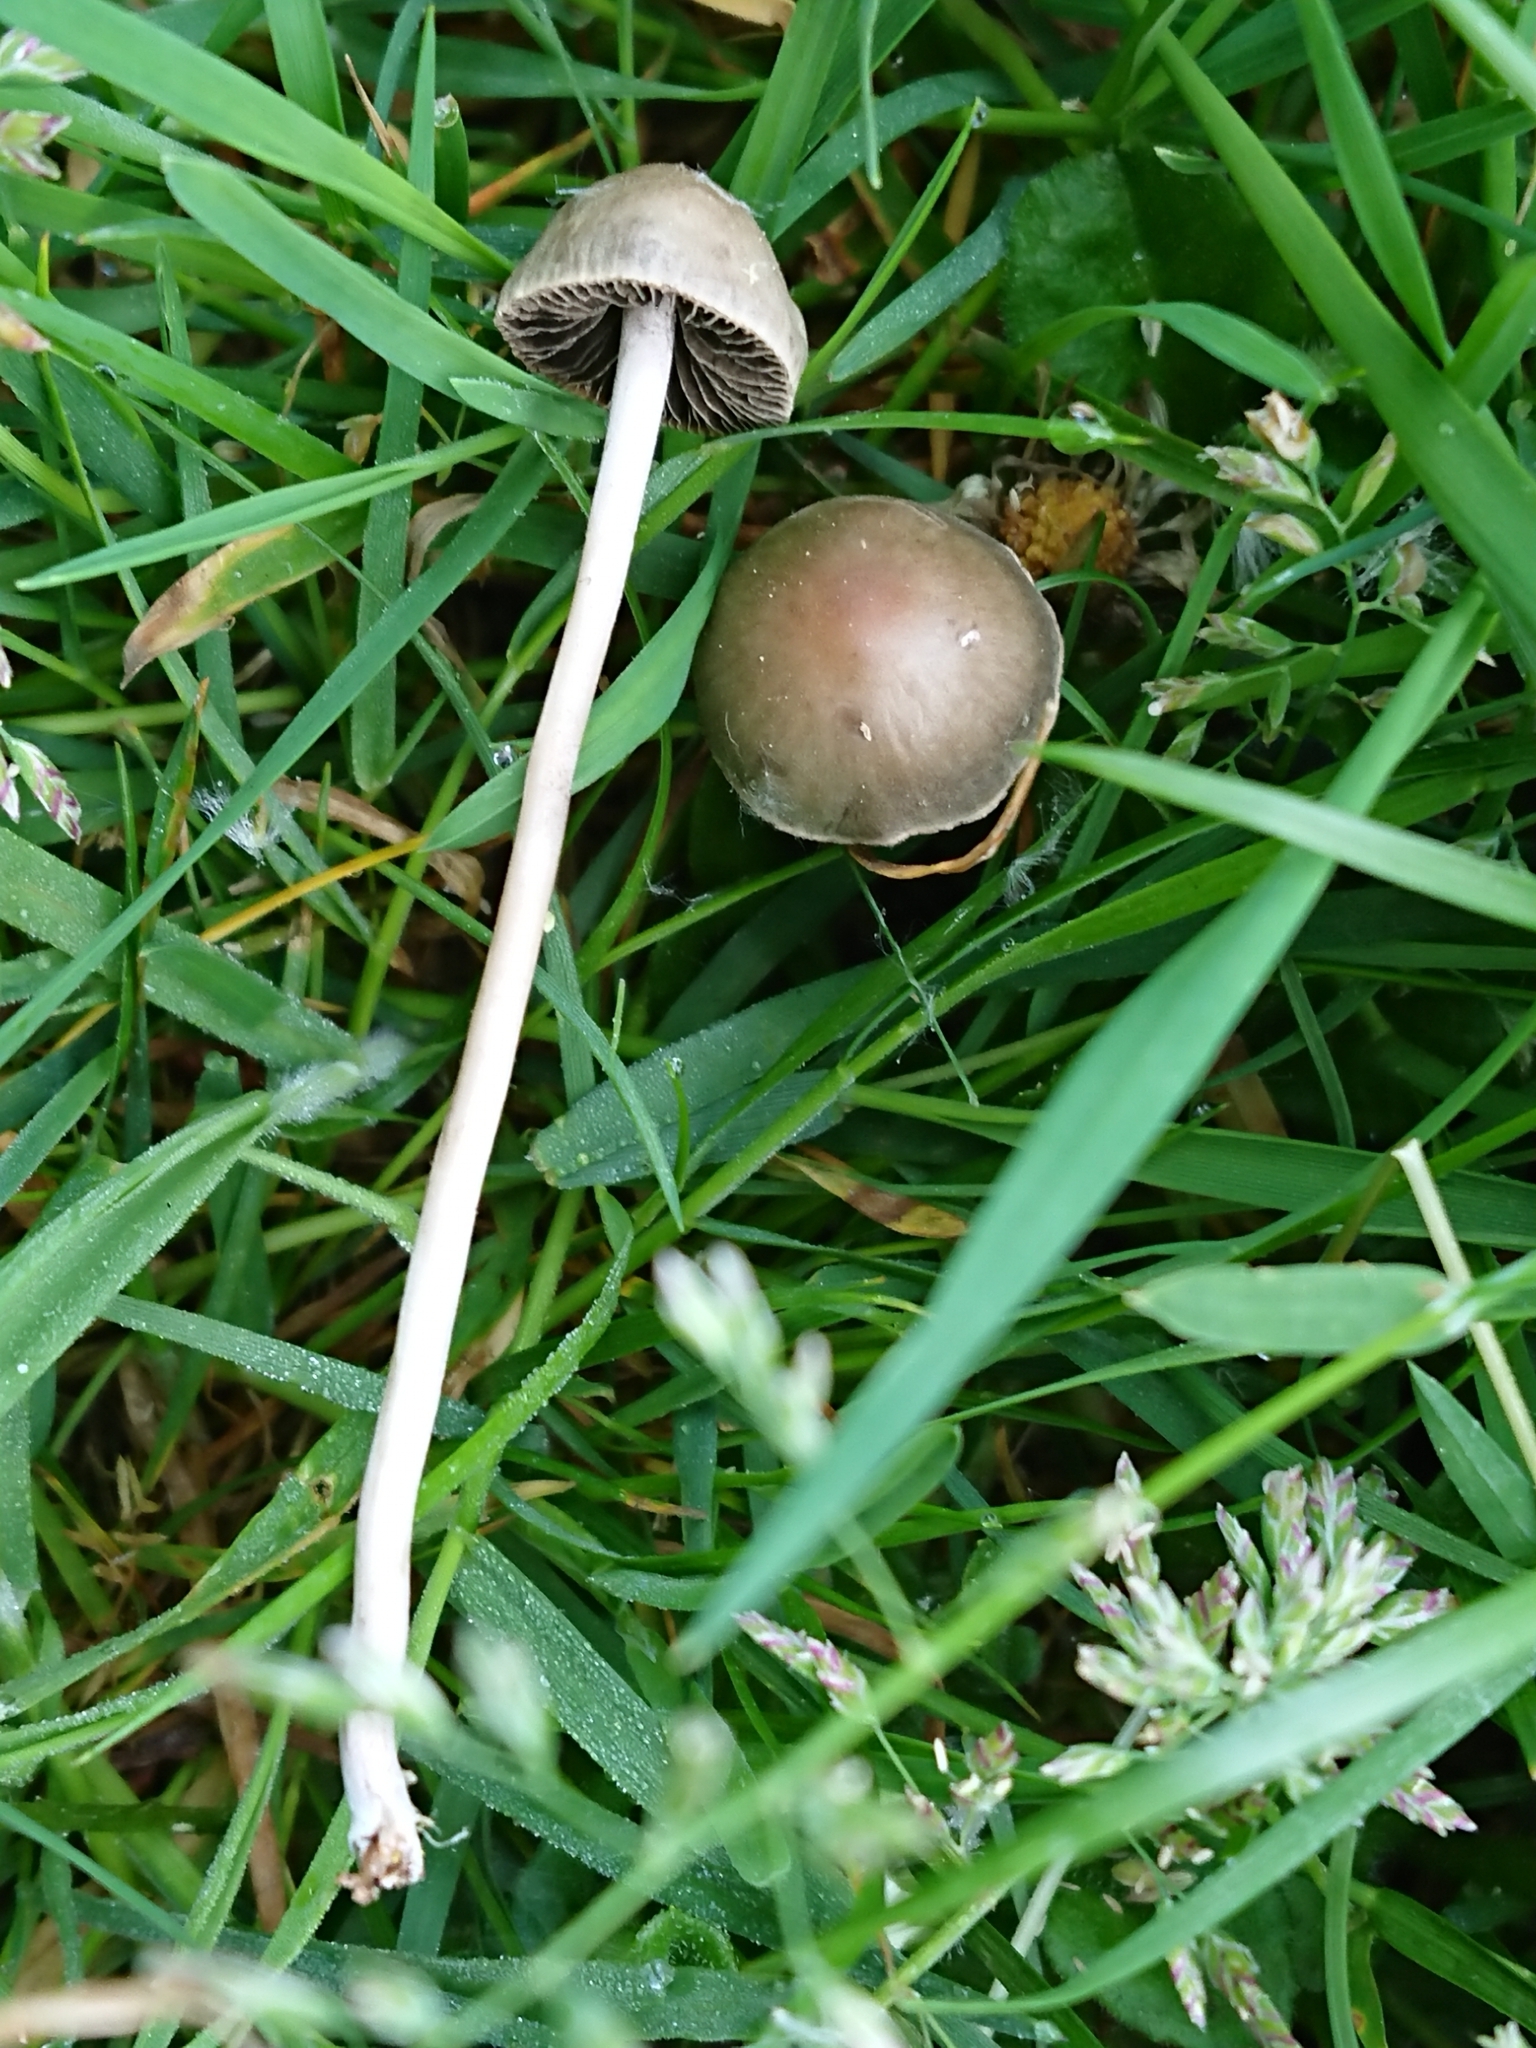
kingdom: Fungi
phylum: Basidiomycota
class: Agaricomycetes
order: Agaricales
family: Bolbitiaceae
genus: Panaeolina
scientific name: Panaeolina foenisecii
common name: Brown hay cap
